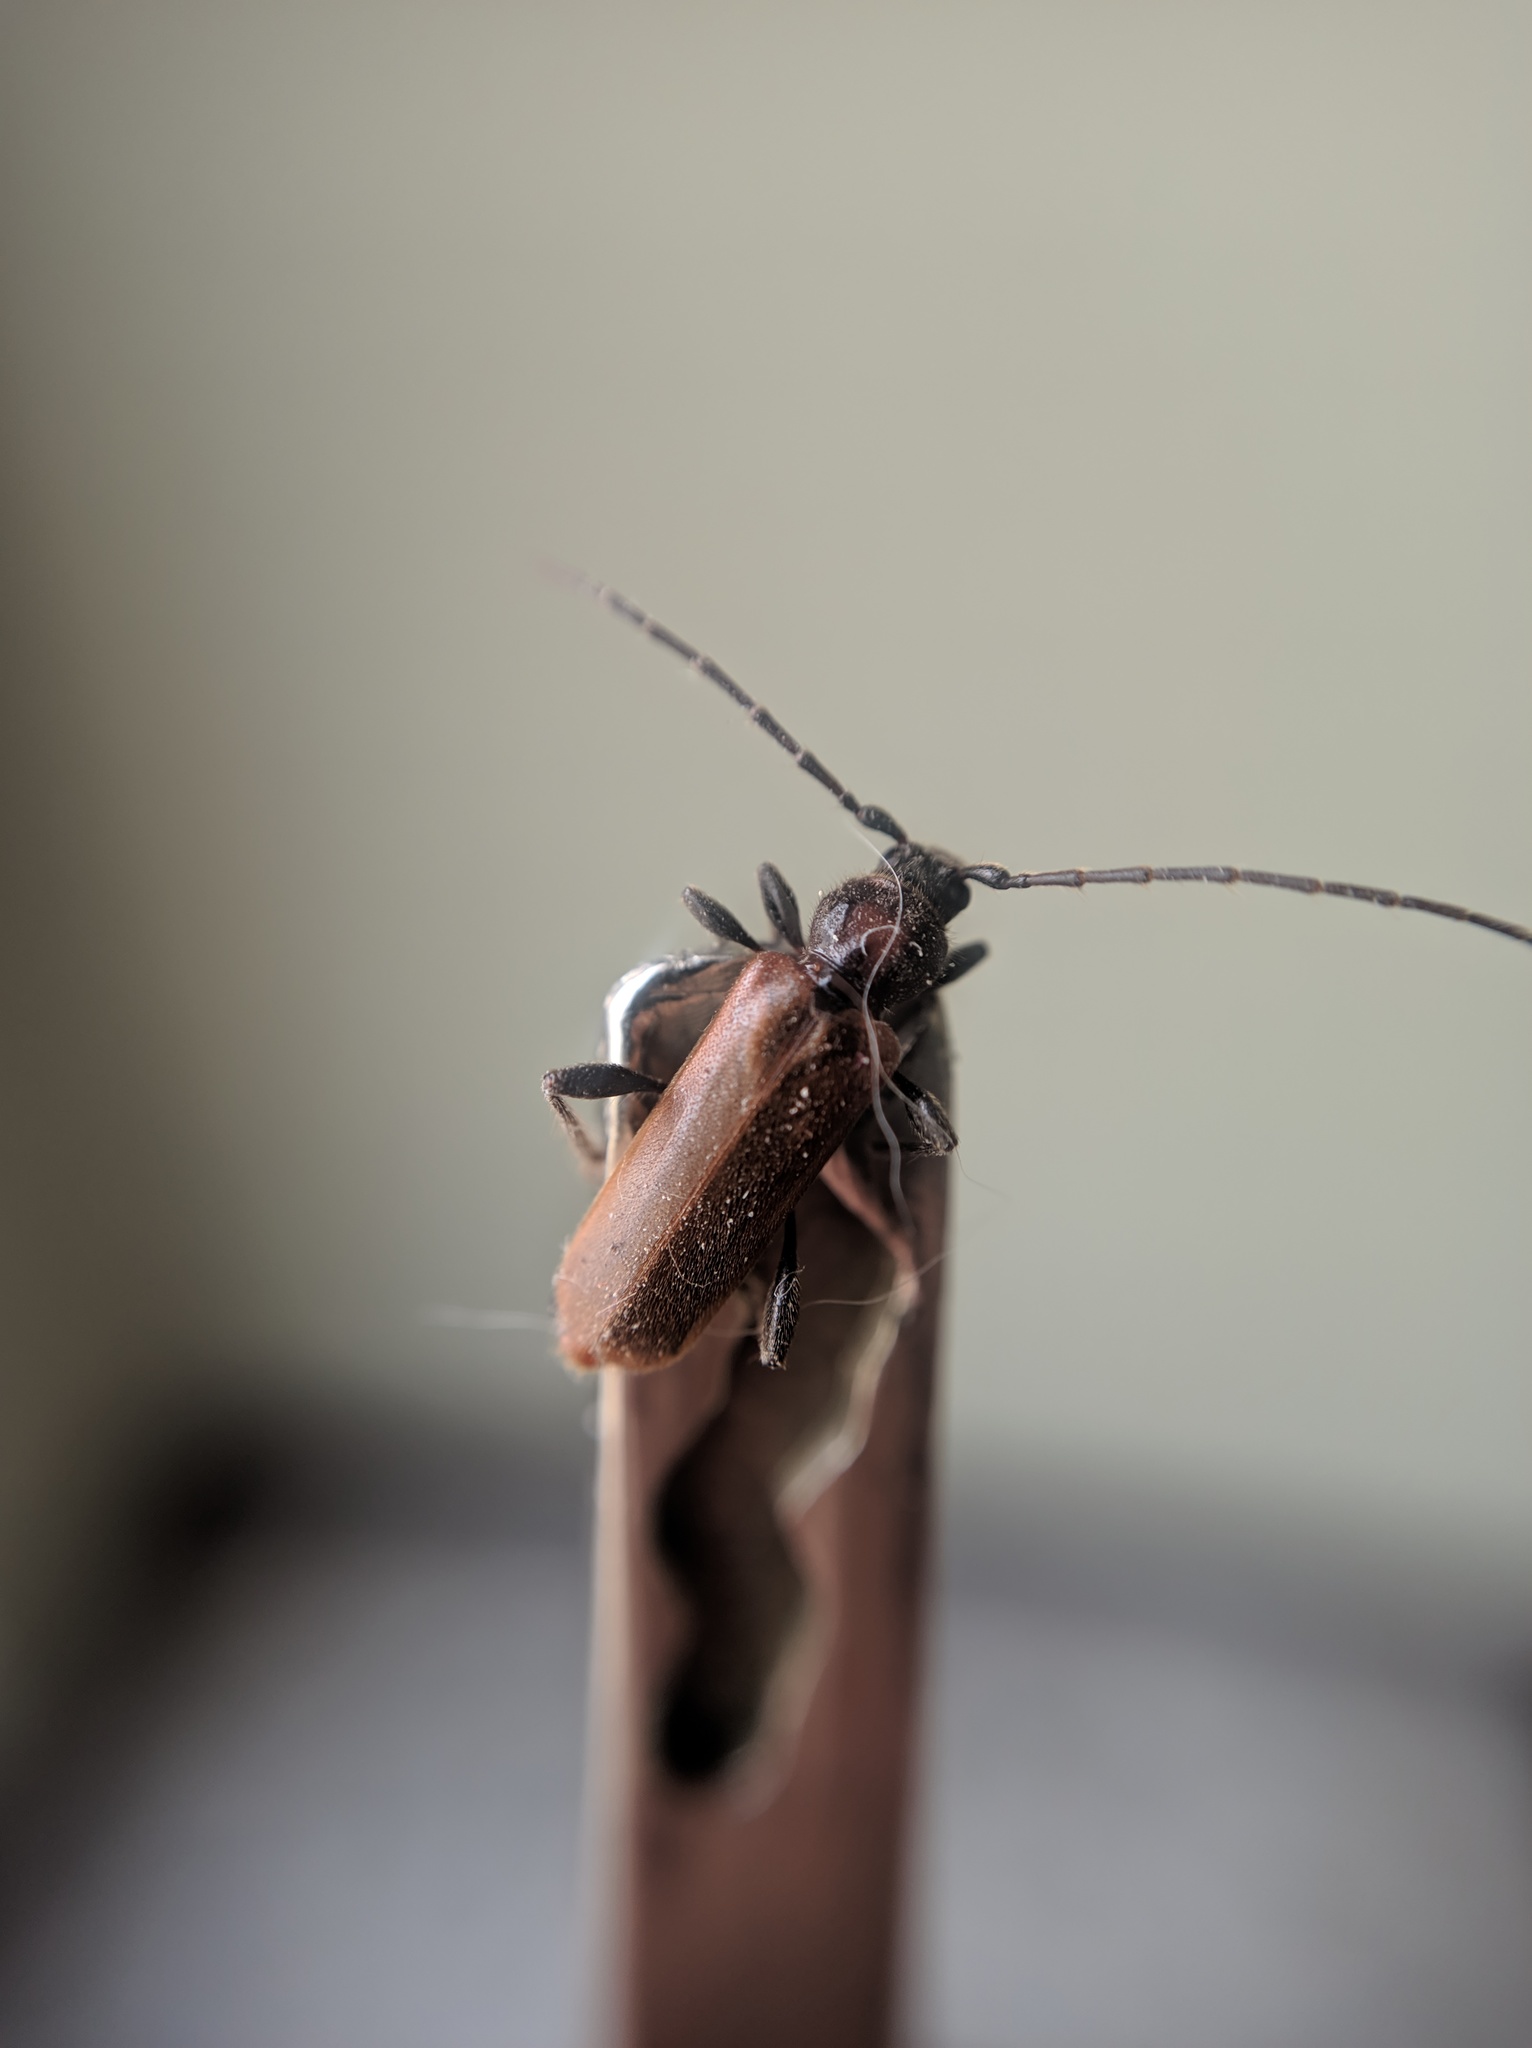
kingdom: Animalia
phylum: Arthropoda
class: Insecta
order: Coleoptera
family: Cerambycidae
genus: Phymatodes
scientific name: Phymatodes testaceus
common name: Long-horned beetle
